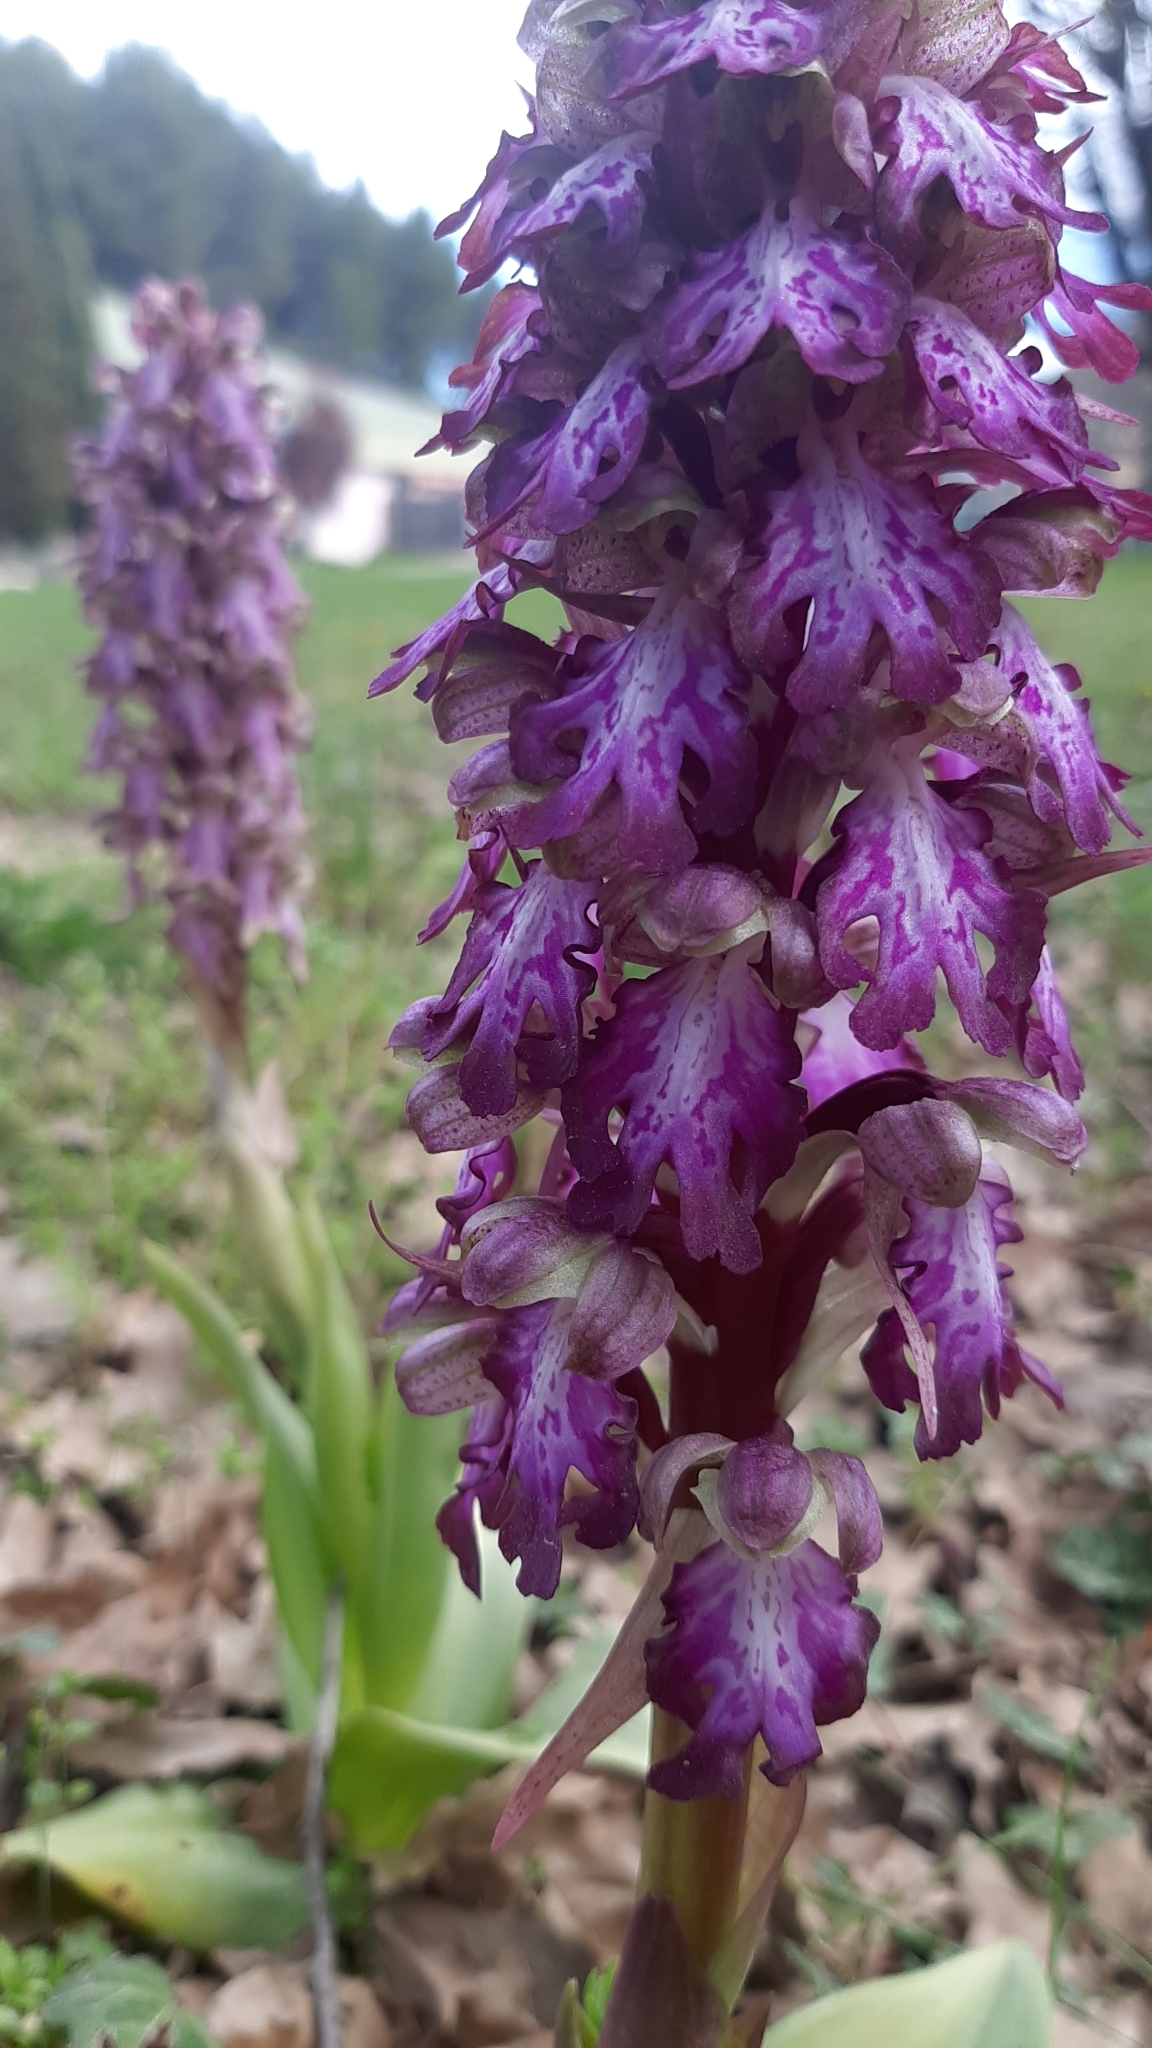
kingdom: Plantae
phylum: Tracheophyta
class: Liliopsida
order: Asparagales
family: Orchidaceae
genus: Himantoglossum
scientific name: Himantoglossum robertianum
